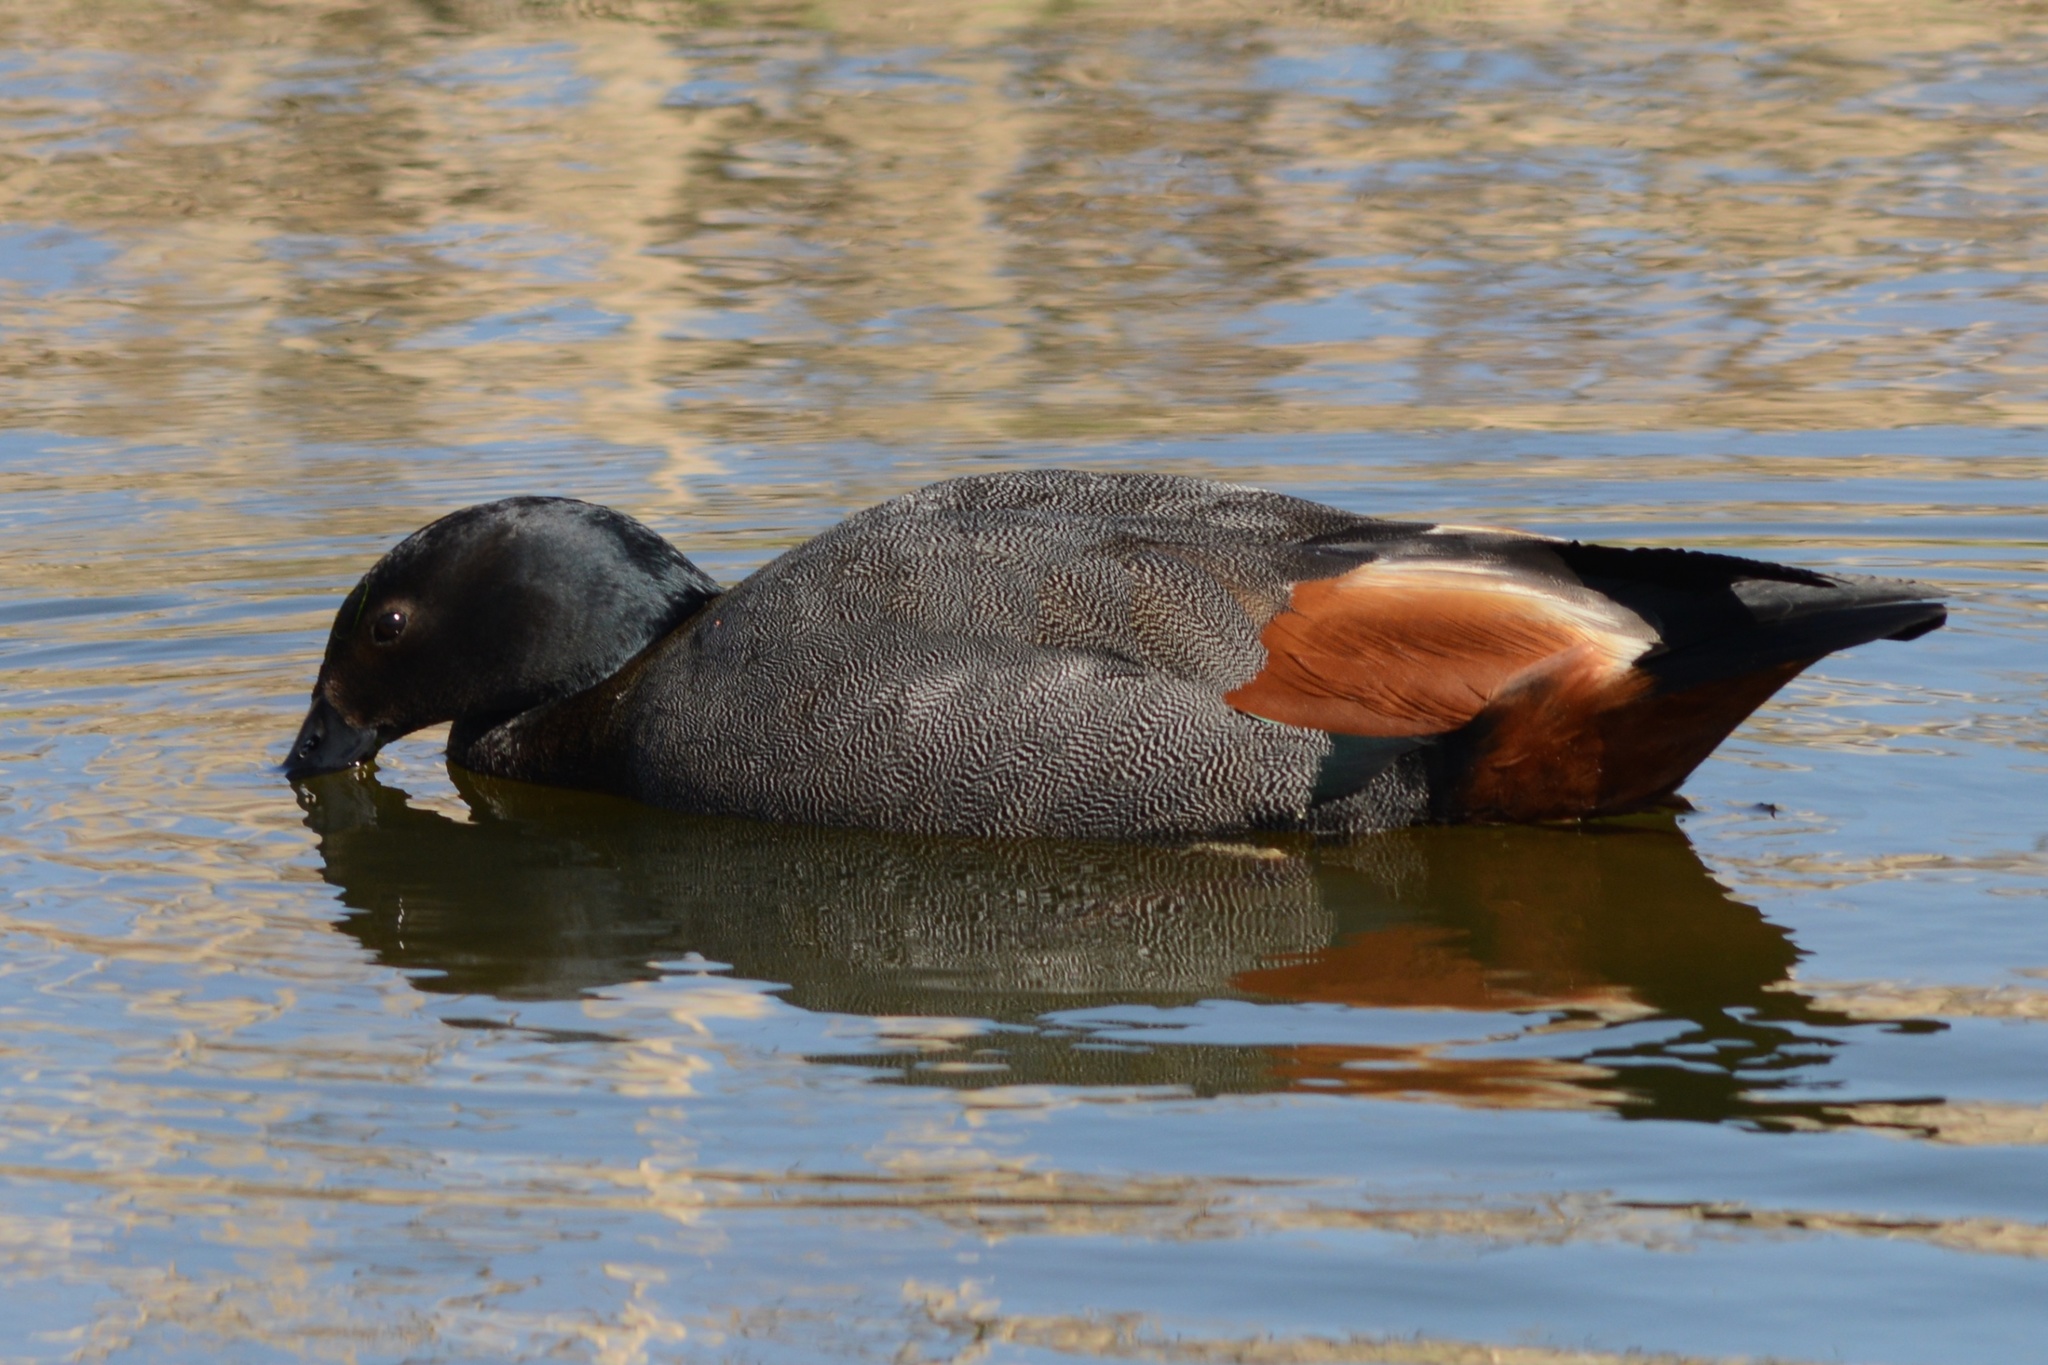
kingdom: Animalia
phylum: Chordata
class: Aves
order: Anseriformes
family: Anatidae
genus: Tadorna
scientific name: Tadorna variegata
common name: Paradise shelduck
